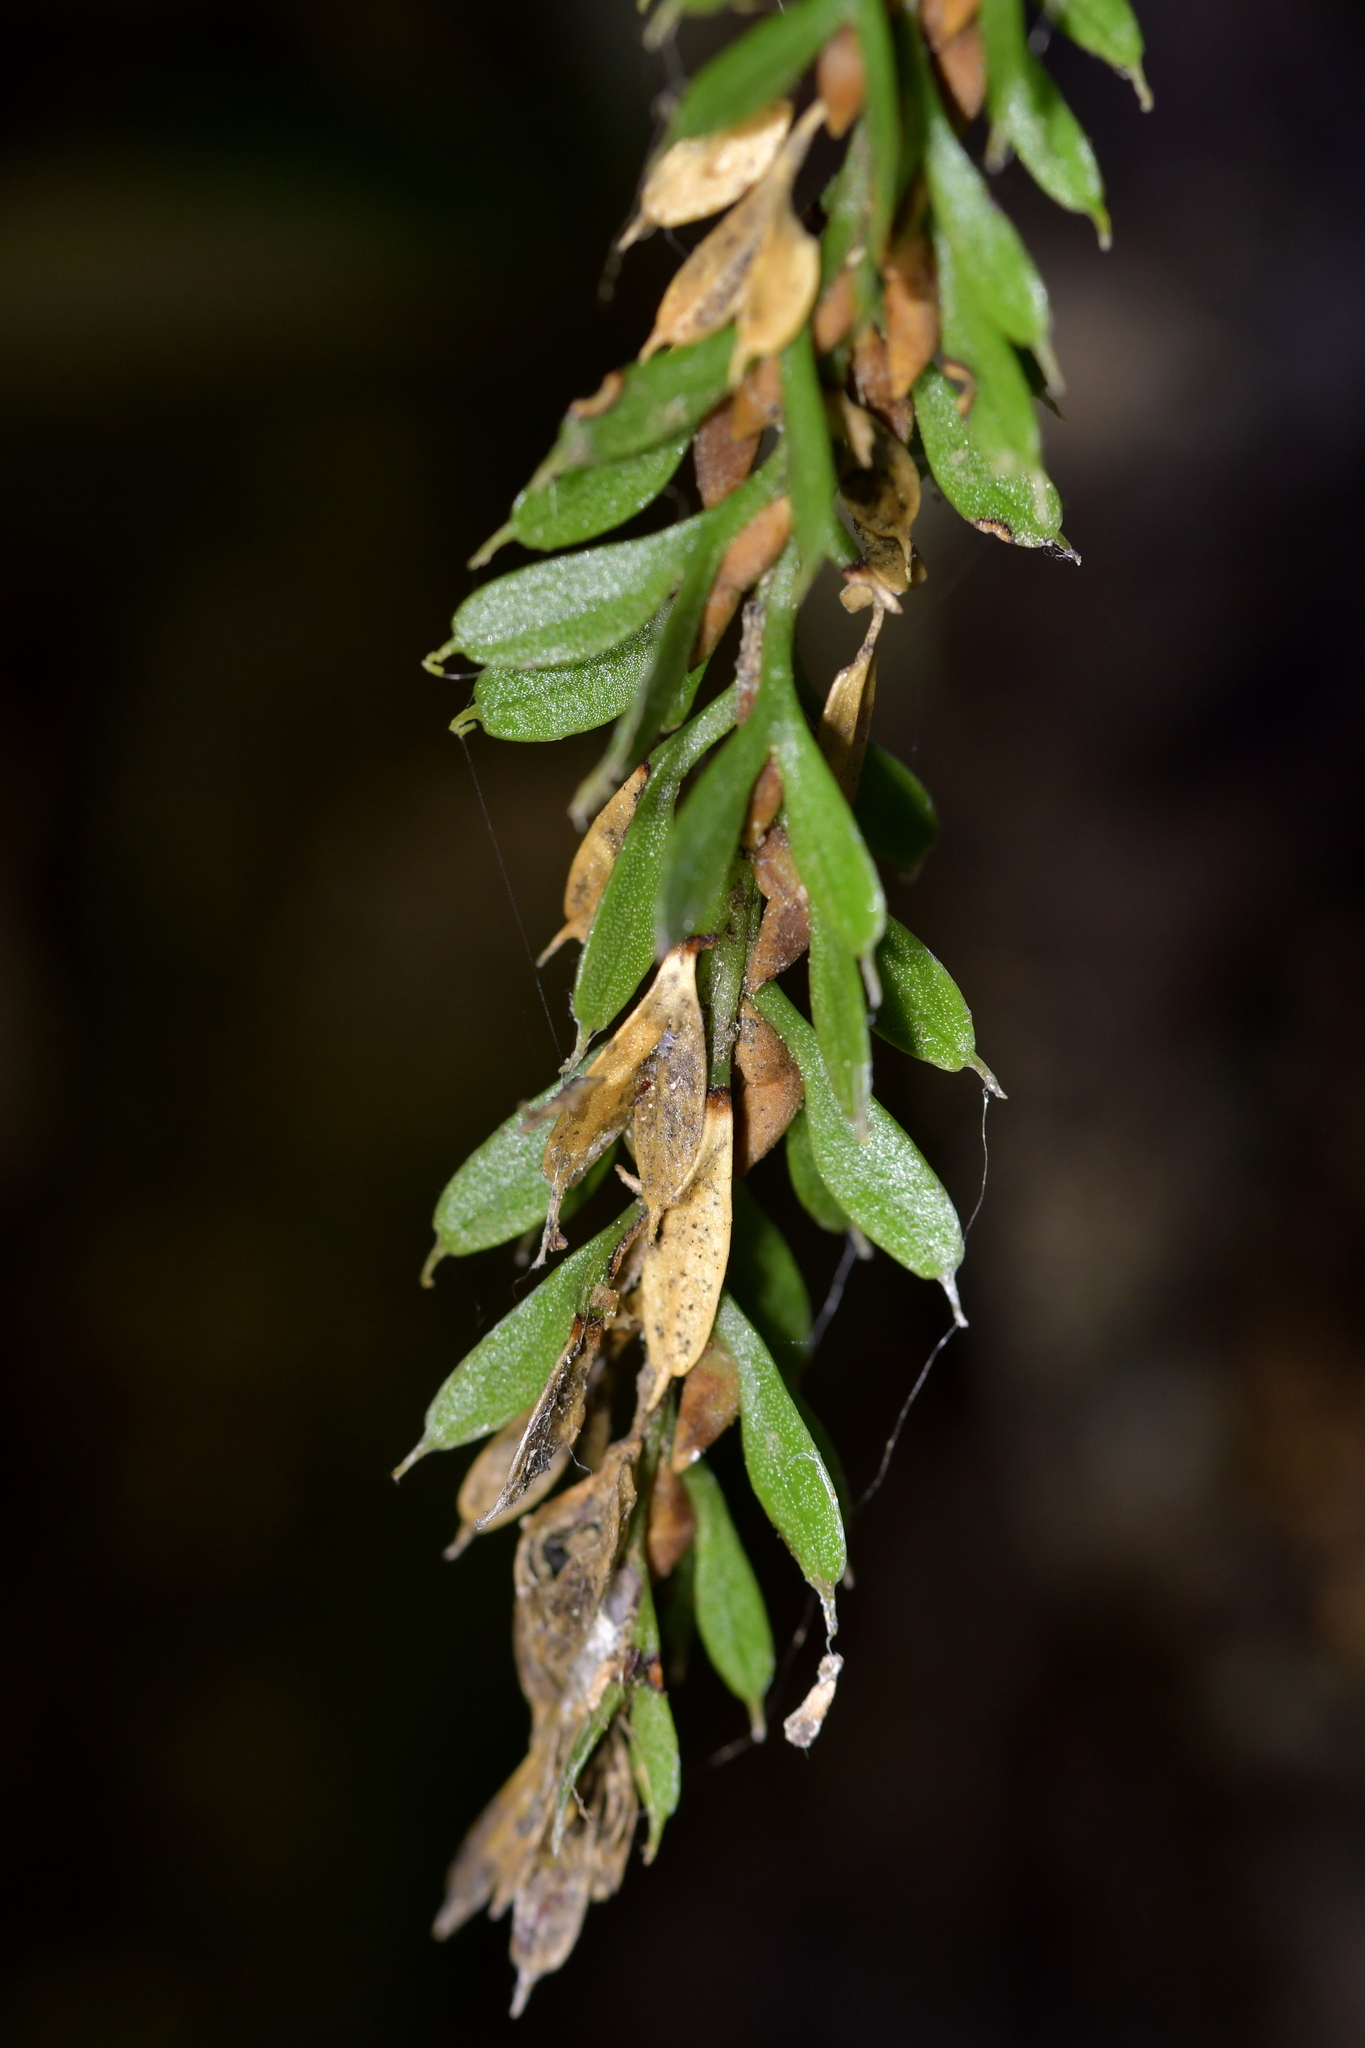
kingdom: Plantae
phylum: Tracheophyta
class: Polypodiopsida
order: Psilotales
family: Psilotaceae
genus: Tmesipteris
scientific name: Tmesipteris tannensis
